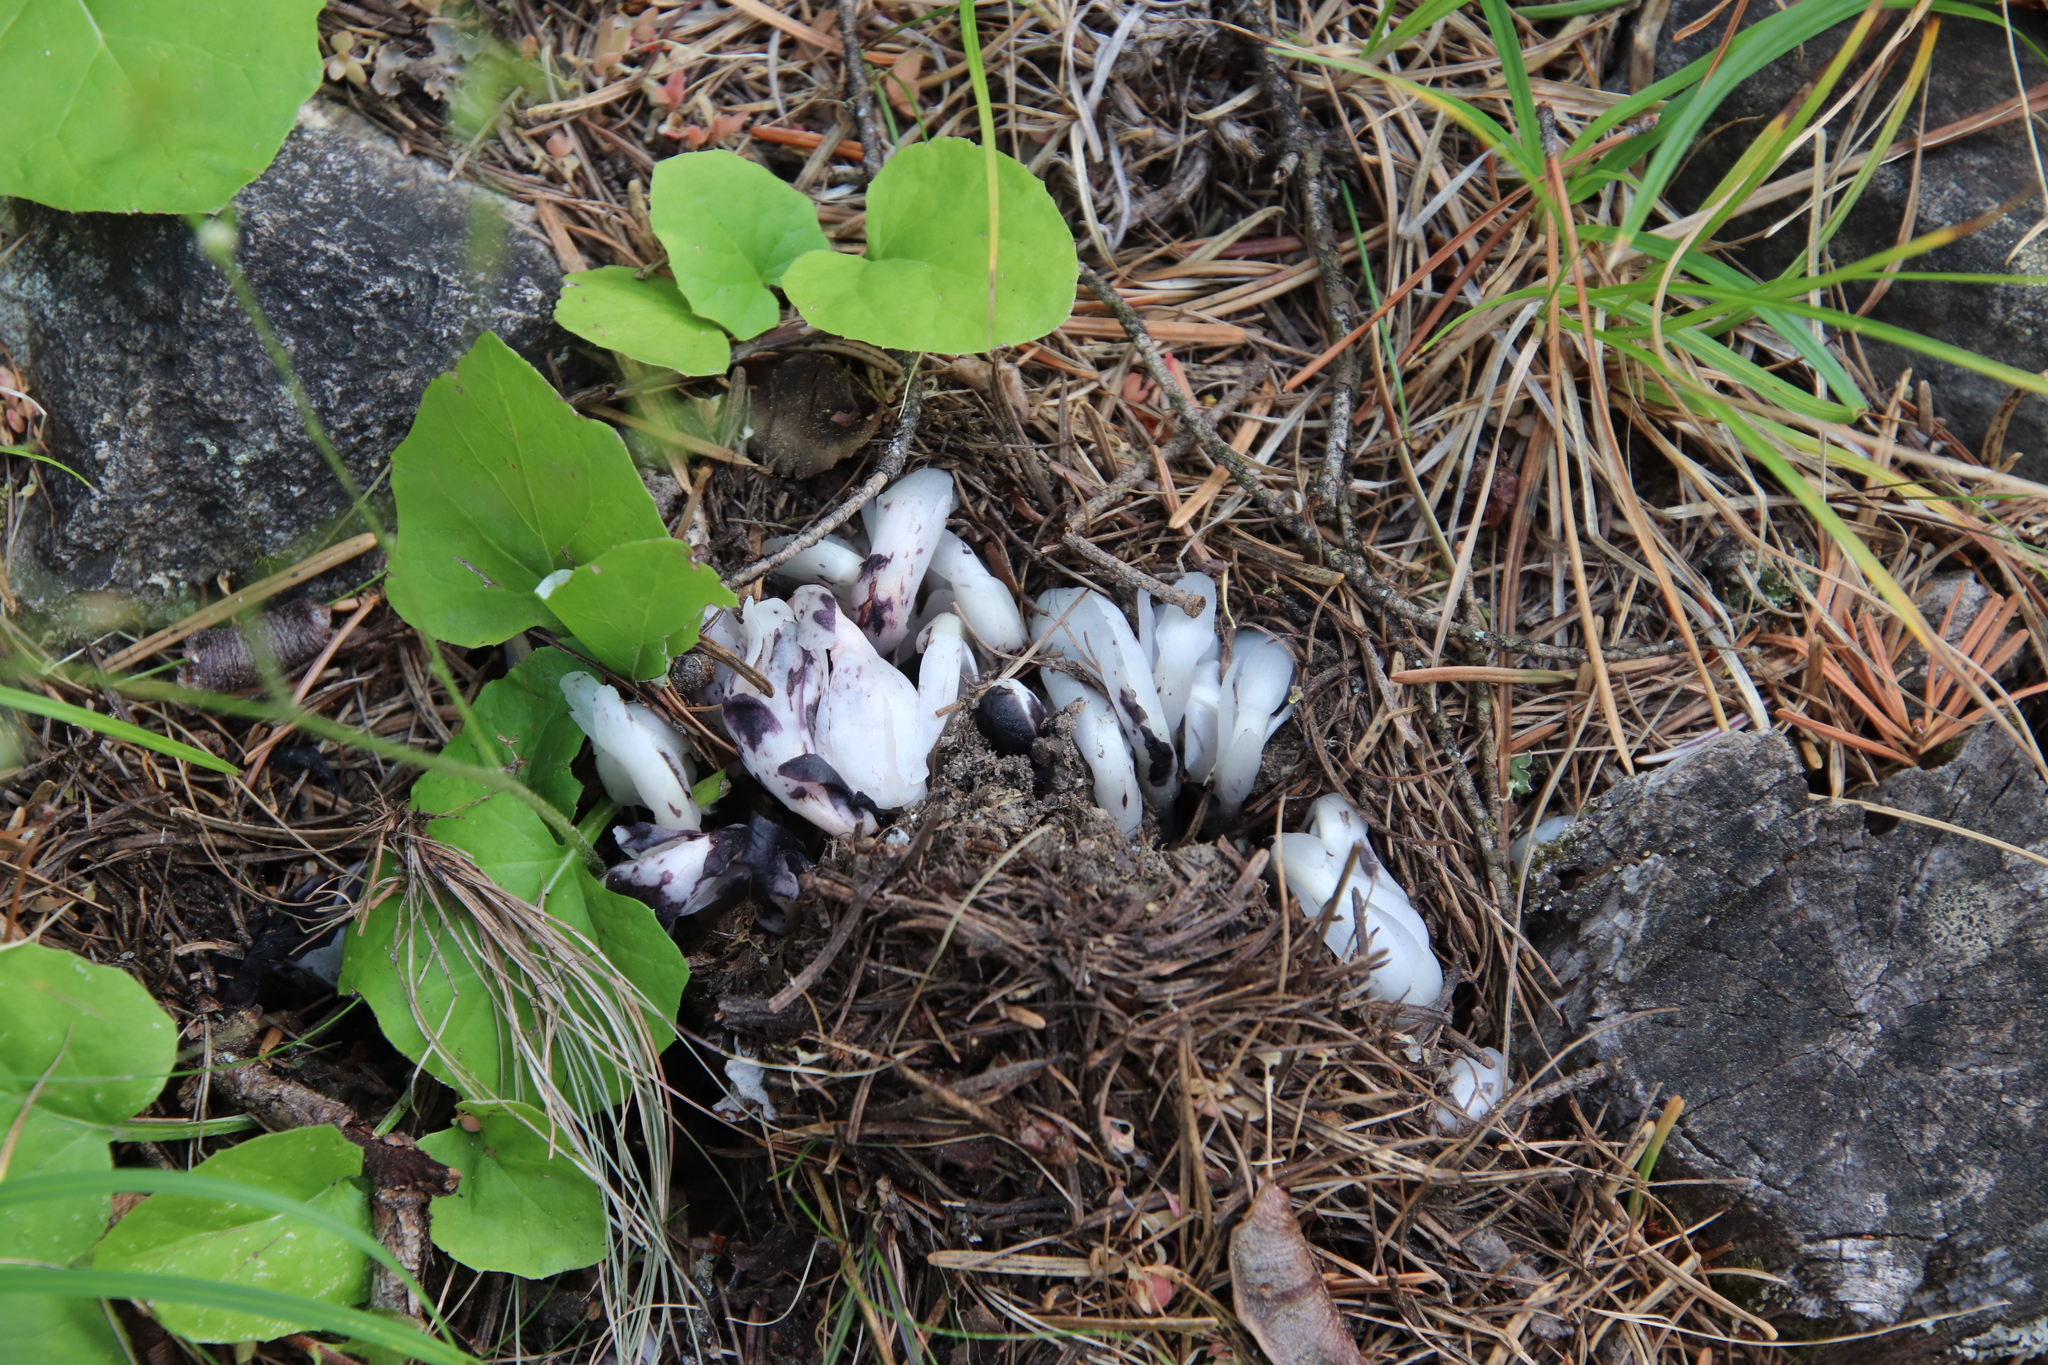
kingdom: Plantae
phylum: Tracheophyta
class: Magnoliopsida
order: Ericales
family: Ericaceae
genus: Monotropa
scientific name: Monotropa uniflora
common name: Convulsion root
